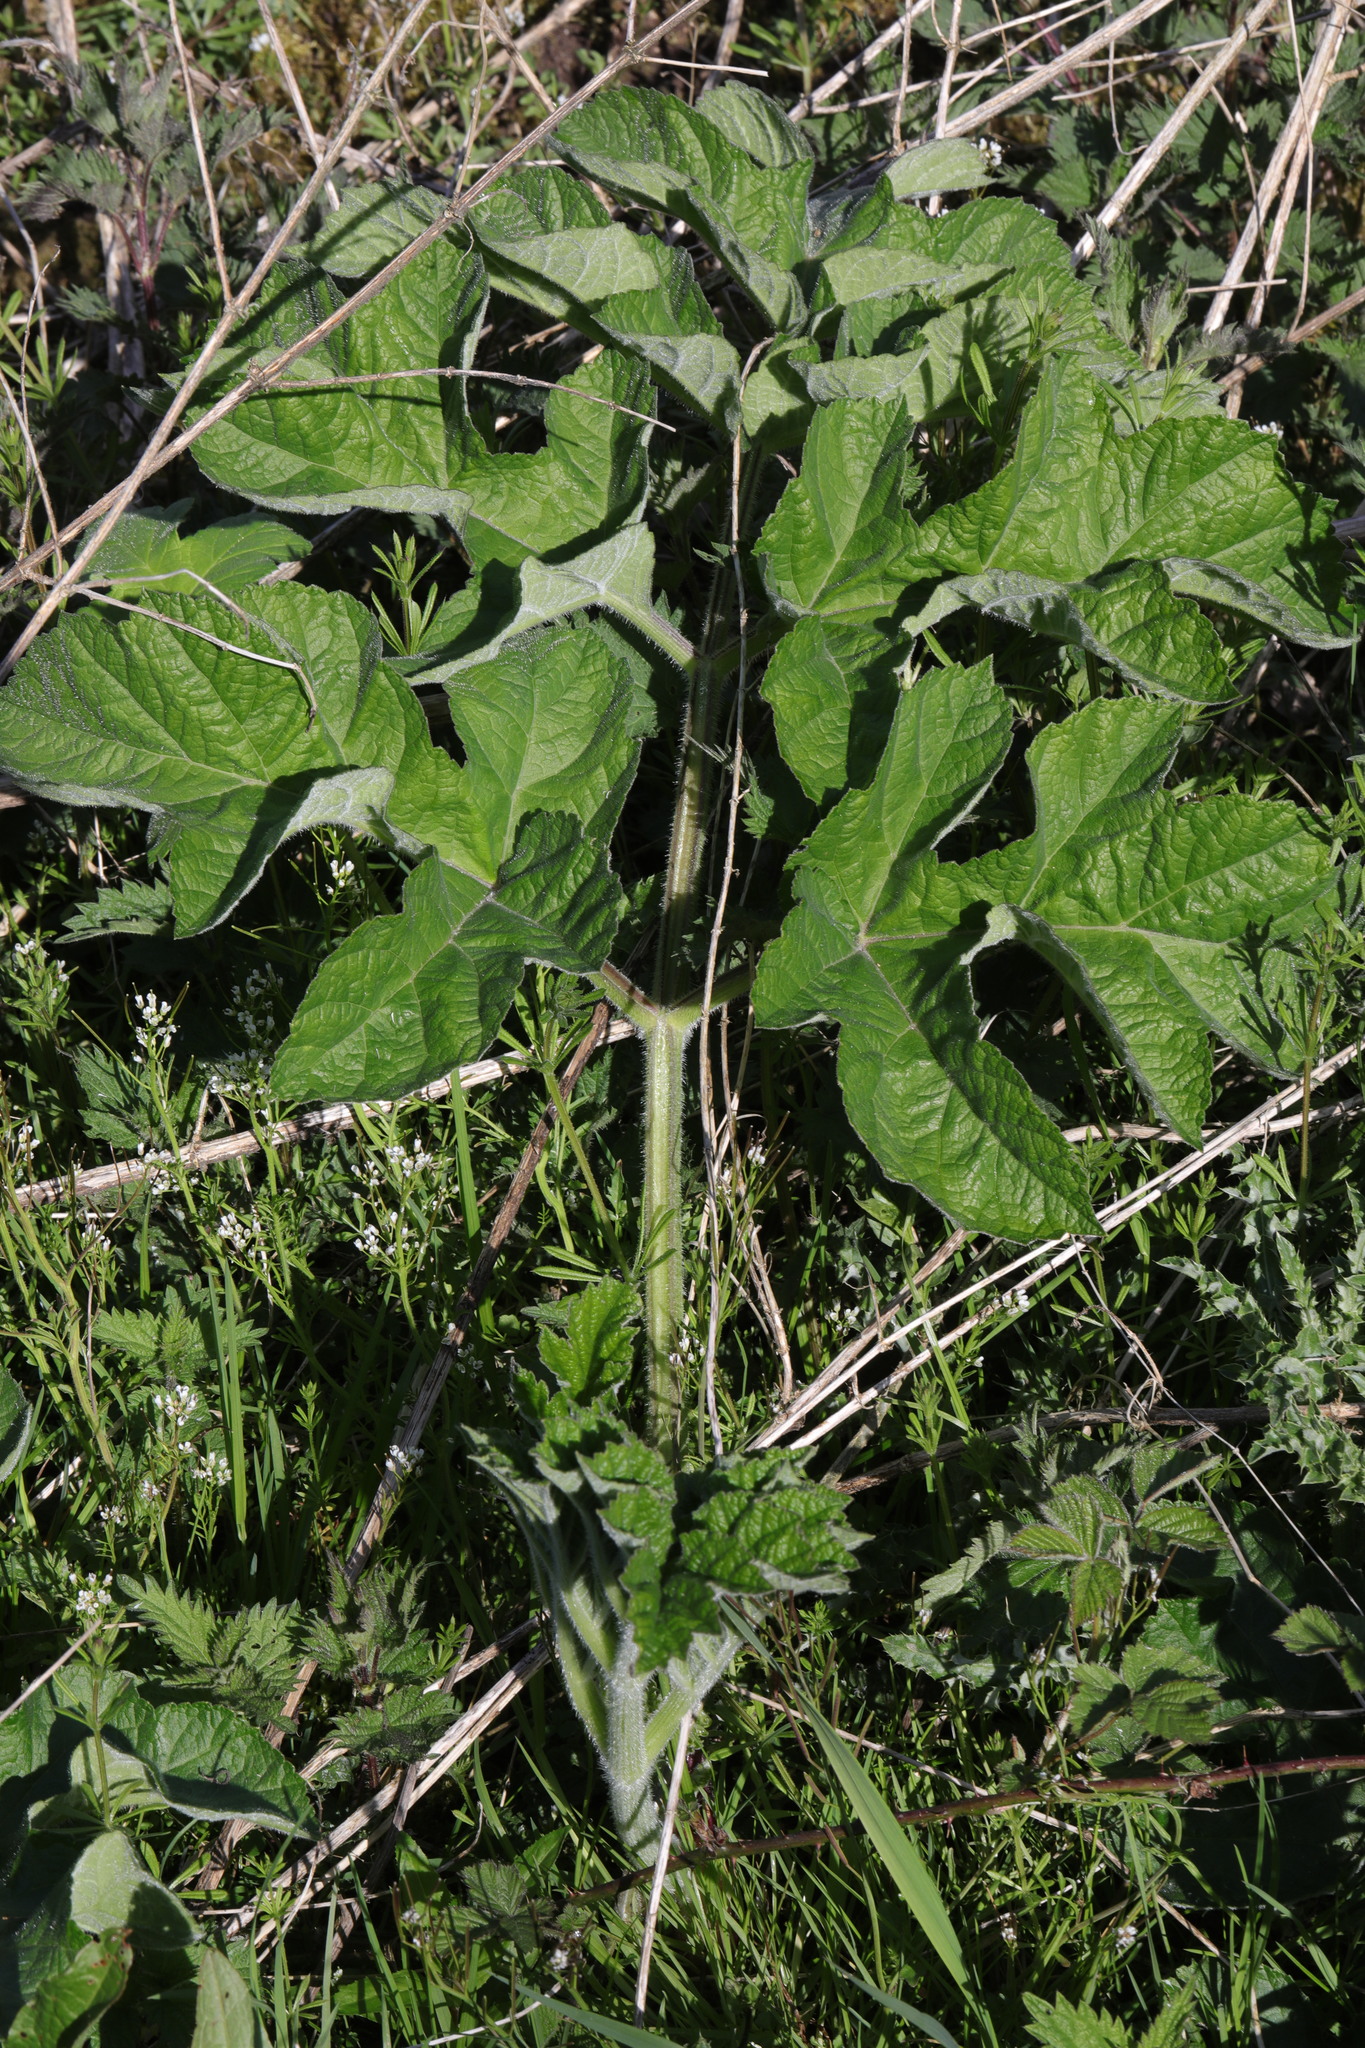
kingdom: Plantae
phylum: Tracheophyta
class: Magnoliopsida
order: Apiales
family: Apiaceae
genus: Heracleum
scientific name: Heracleum sphondylium
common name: Hogweed
